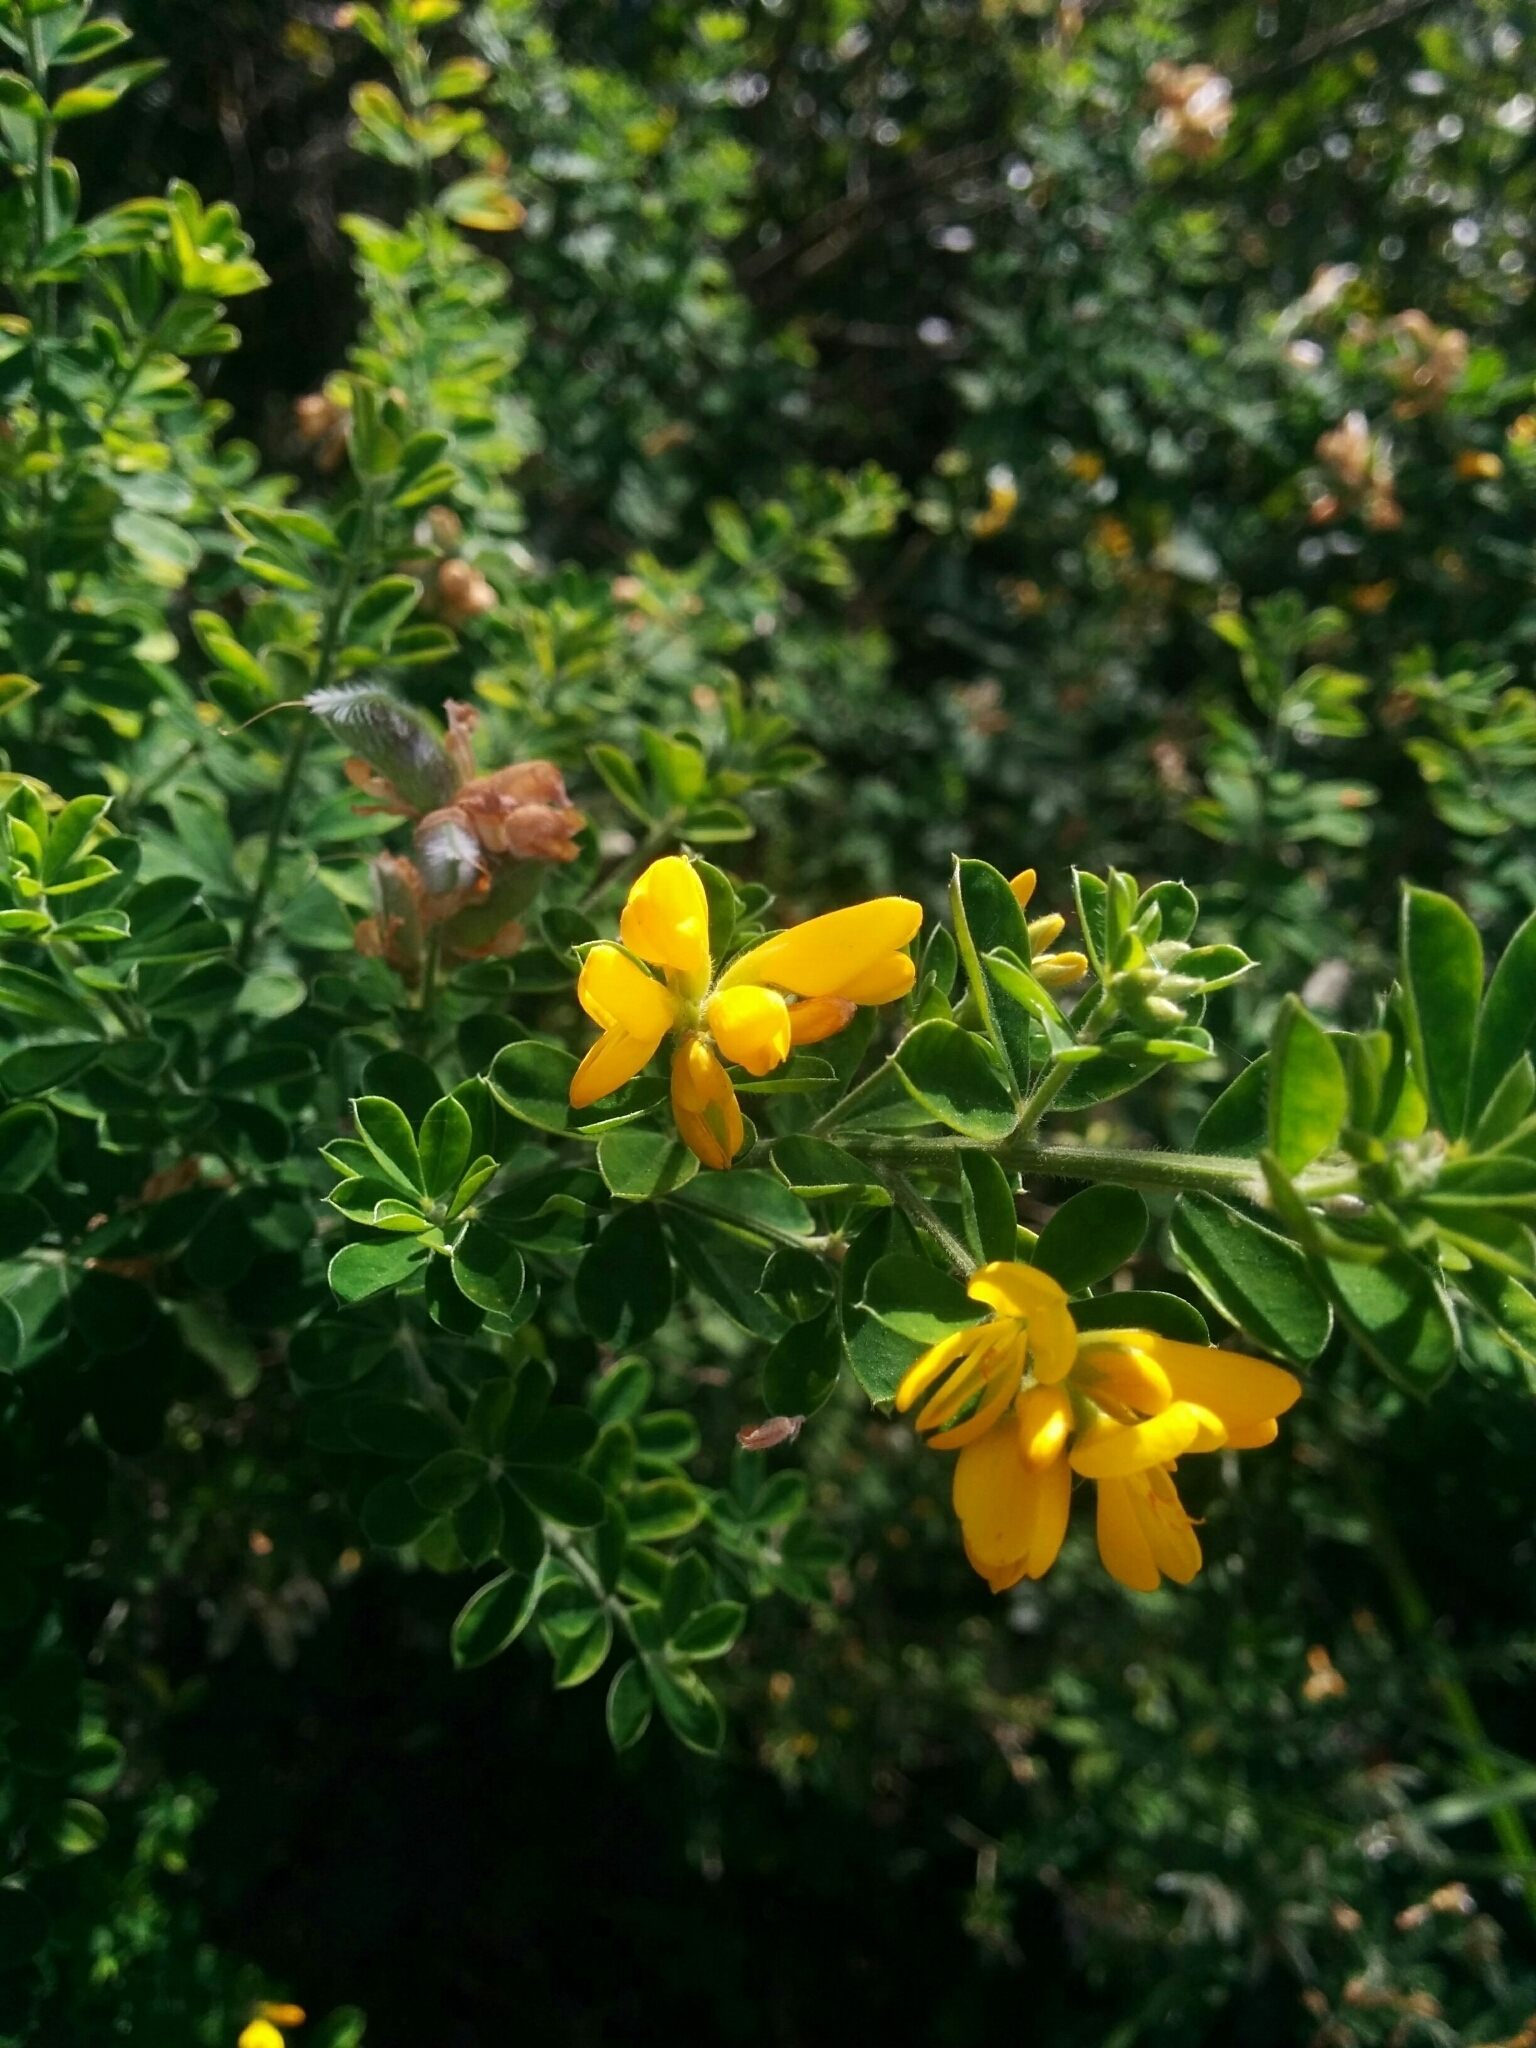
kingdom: Plantae
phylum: Tracheophyta
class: Magnoliopsida
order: Fabales
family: Fabaceae
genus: Genista
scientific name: Genista monspessulana
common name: Montpellier broom
